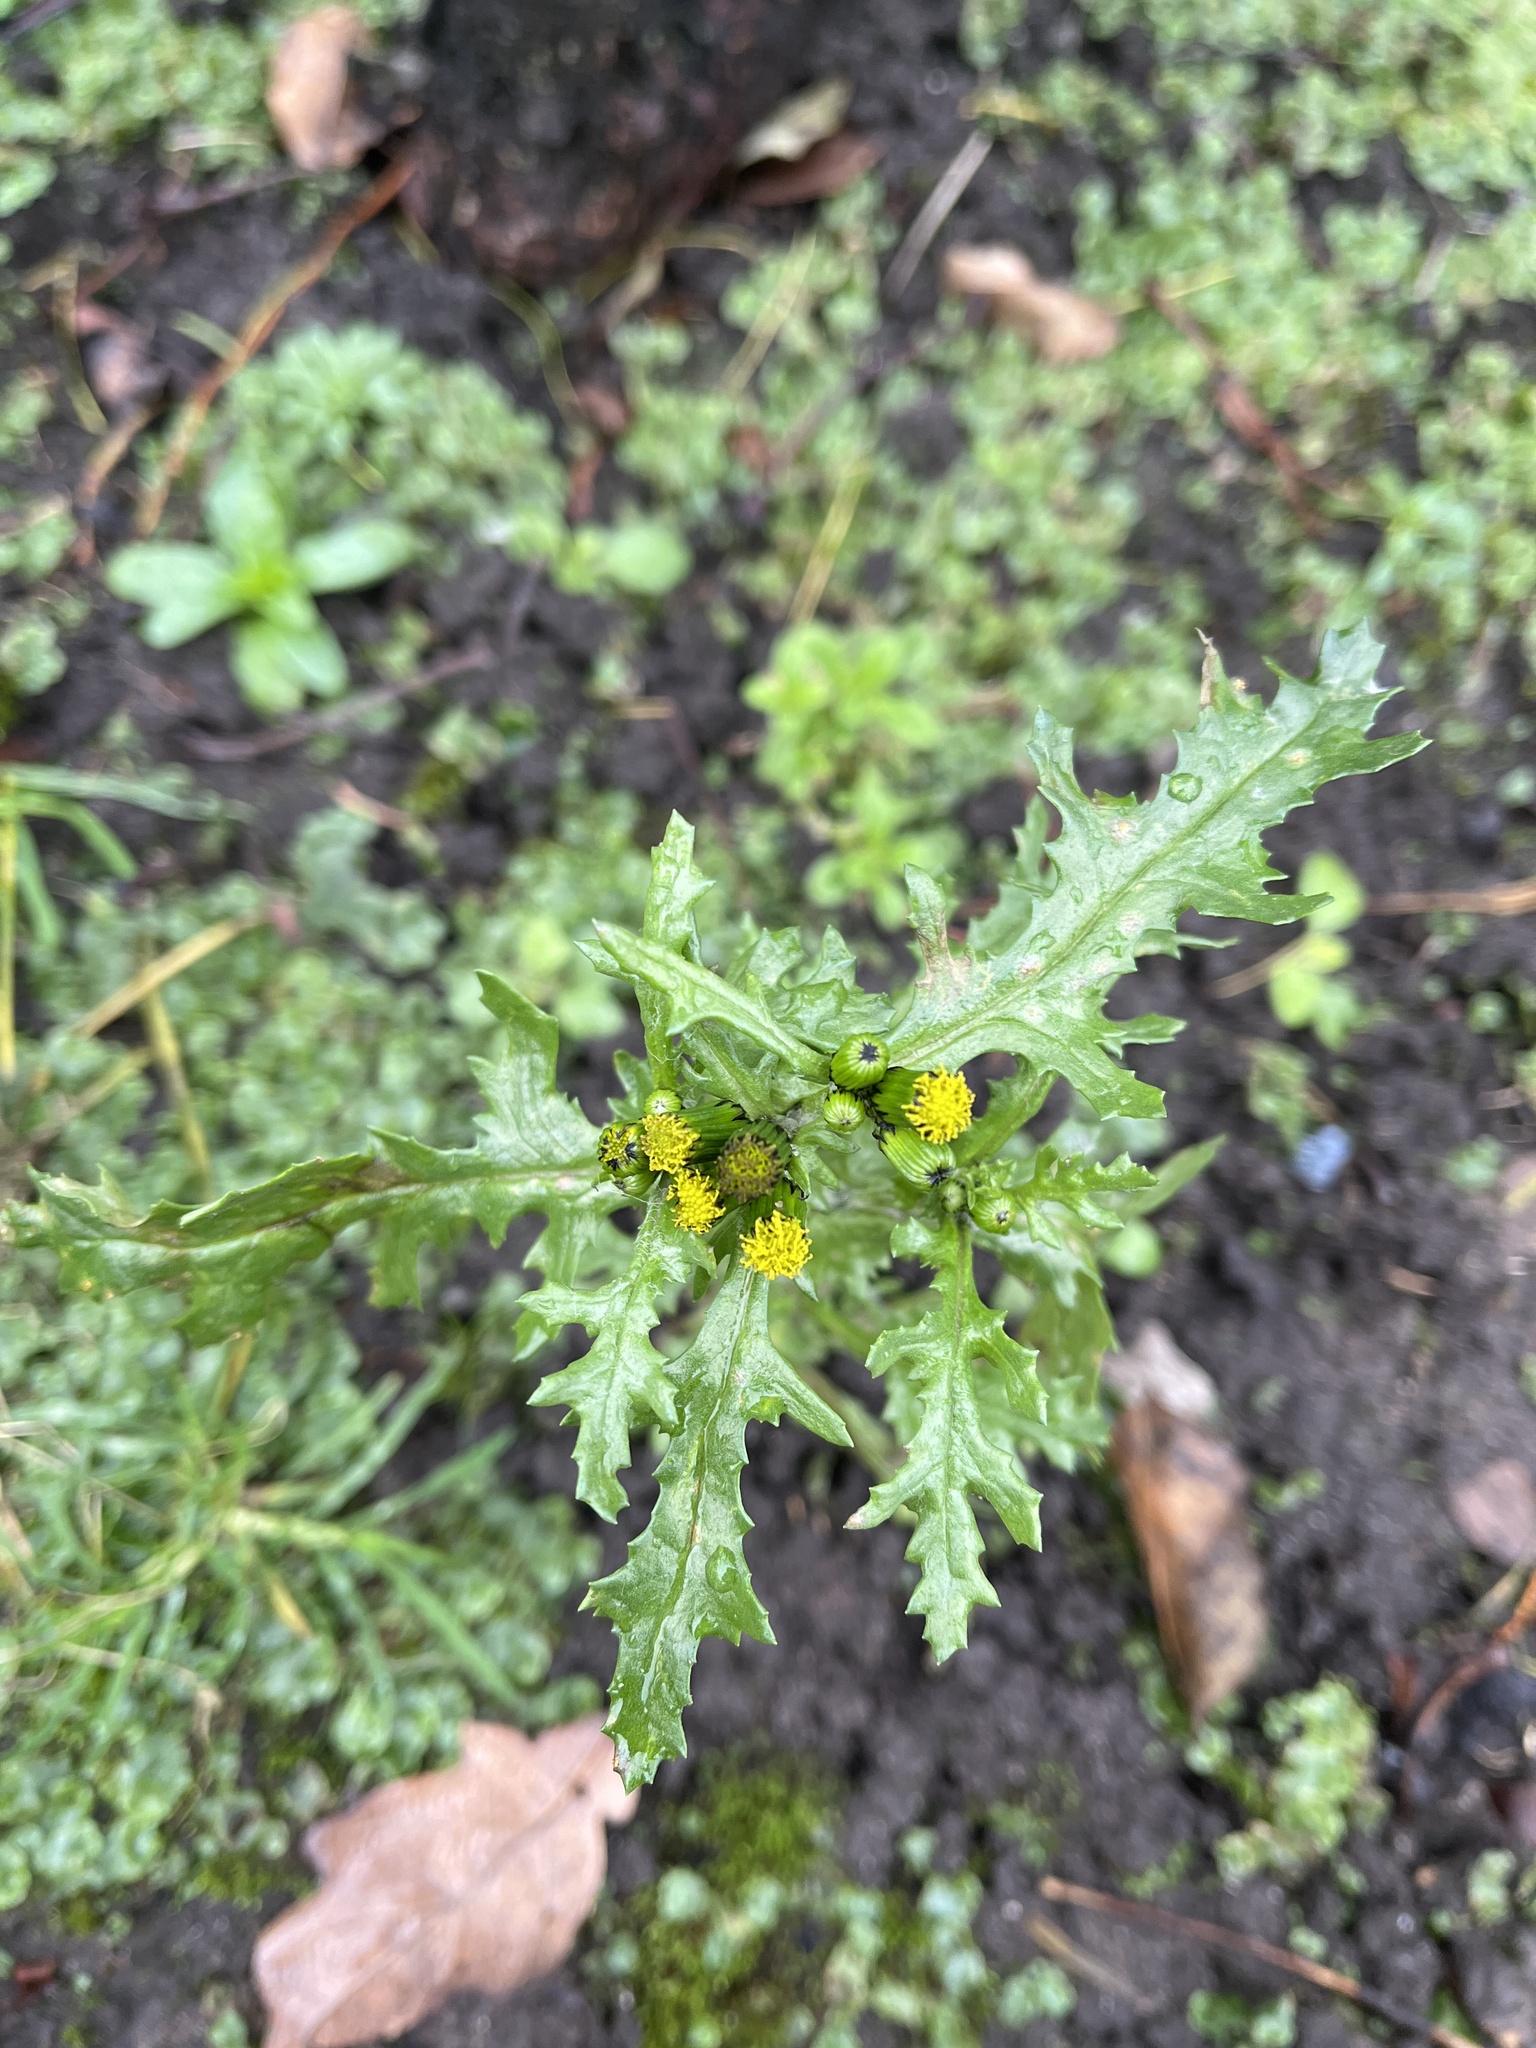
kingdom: Plantae
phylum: Tracheophyta
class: Magnoliopsida
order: Asterales
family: Asteraceae
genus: Senecio
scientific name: Senecio vulgaris
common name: Old-man-in-the-spring
